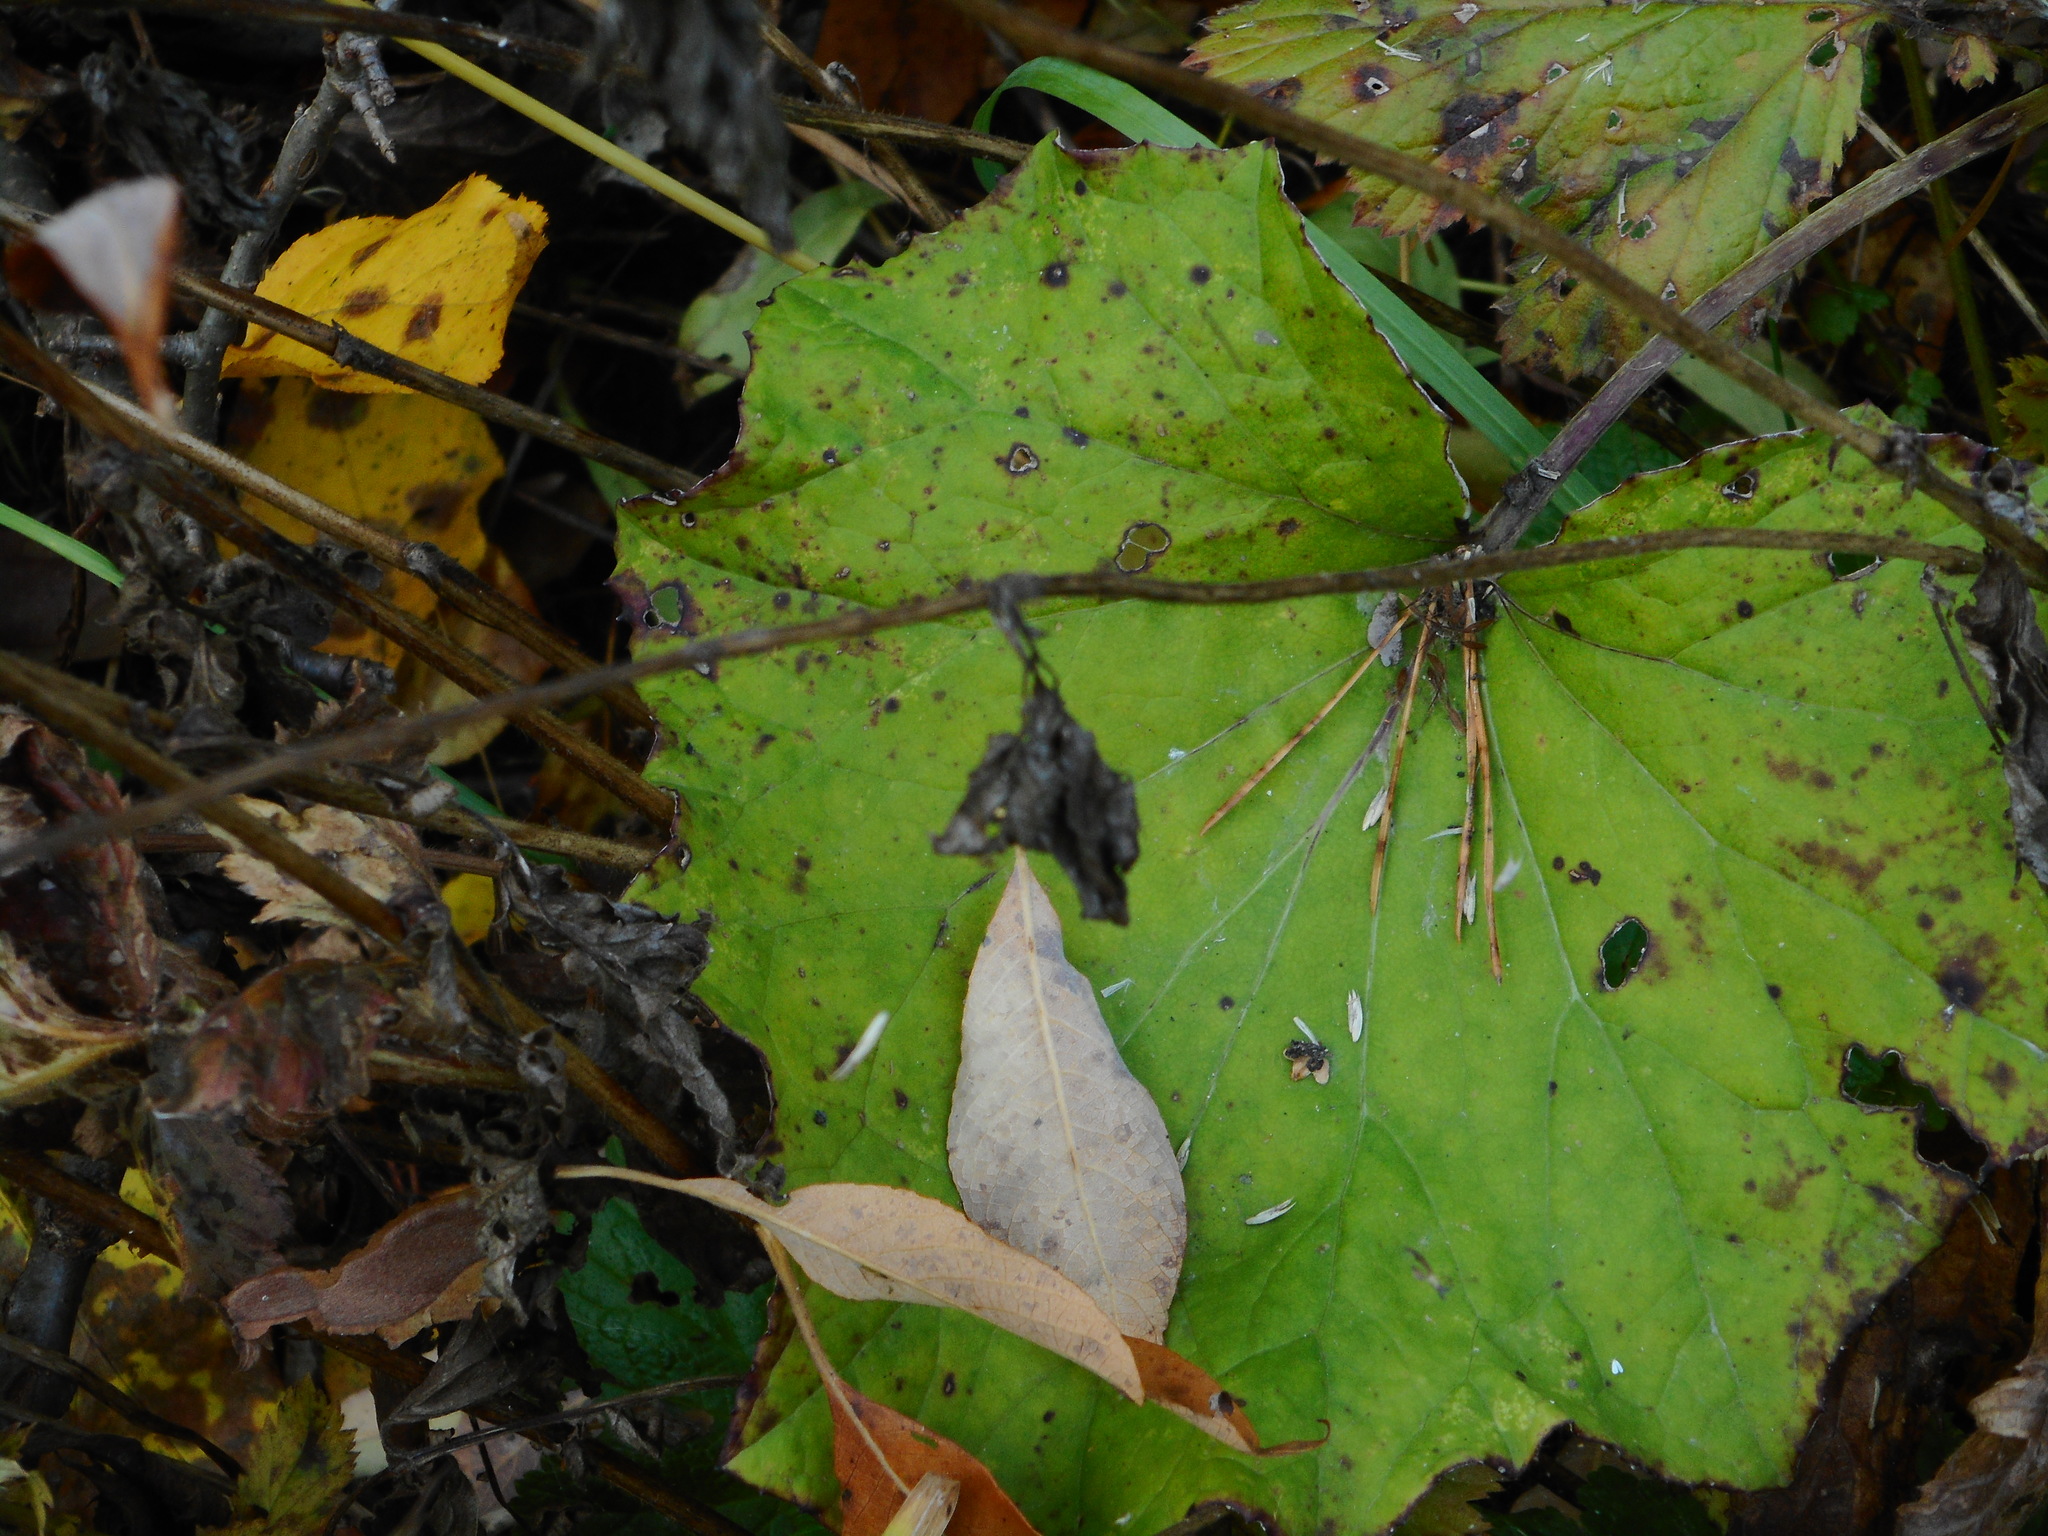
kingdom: Plantae
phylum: Tracheophyta
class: Magnoliopsida
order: Asterales
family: Asteraceae
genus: Tussilago
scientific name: Tussilago farfara
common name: Coltsfoot
